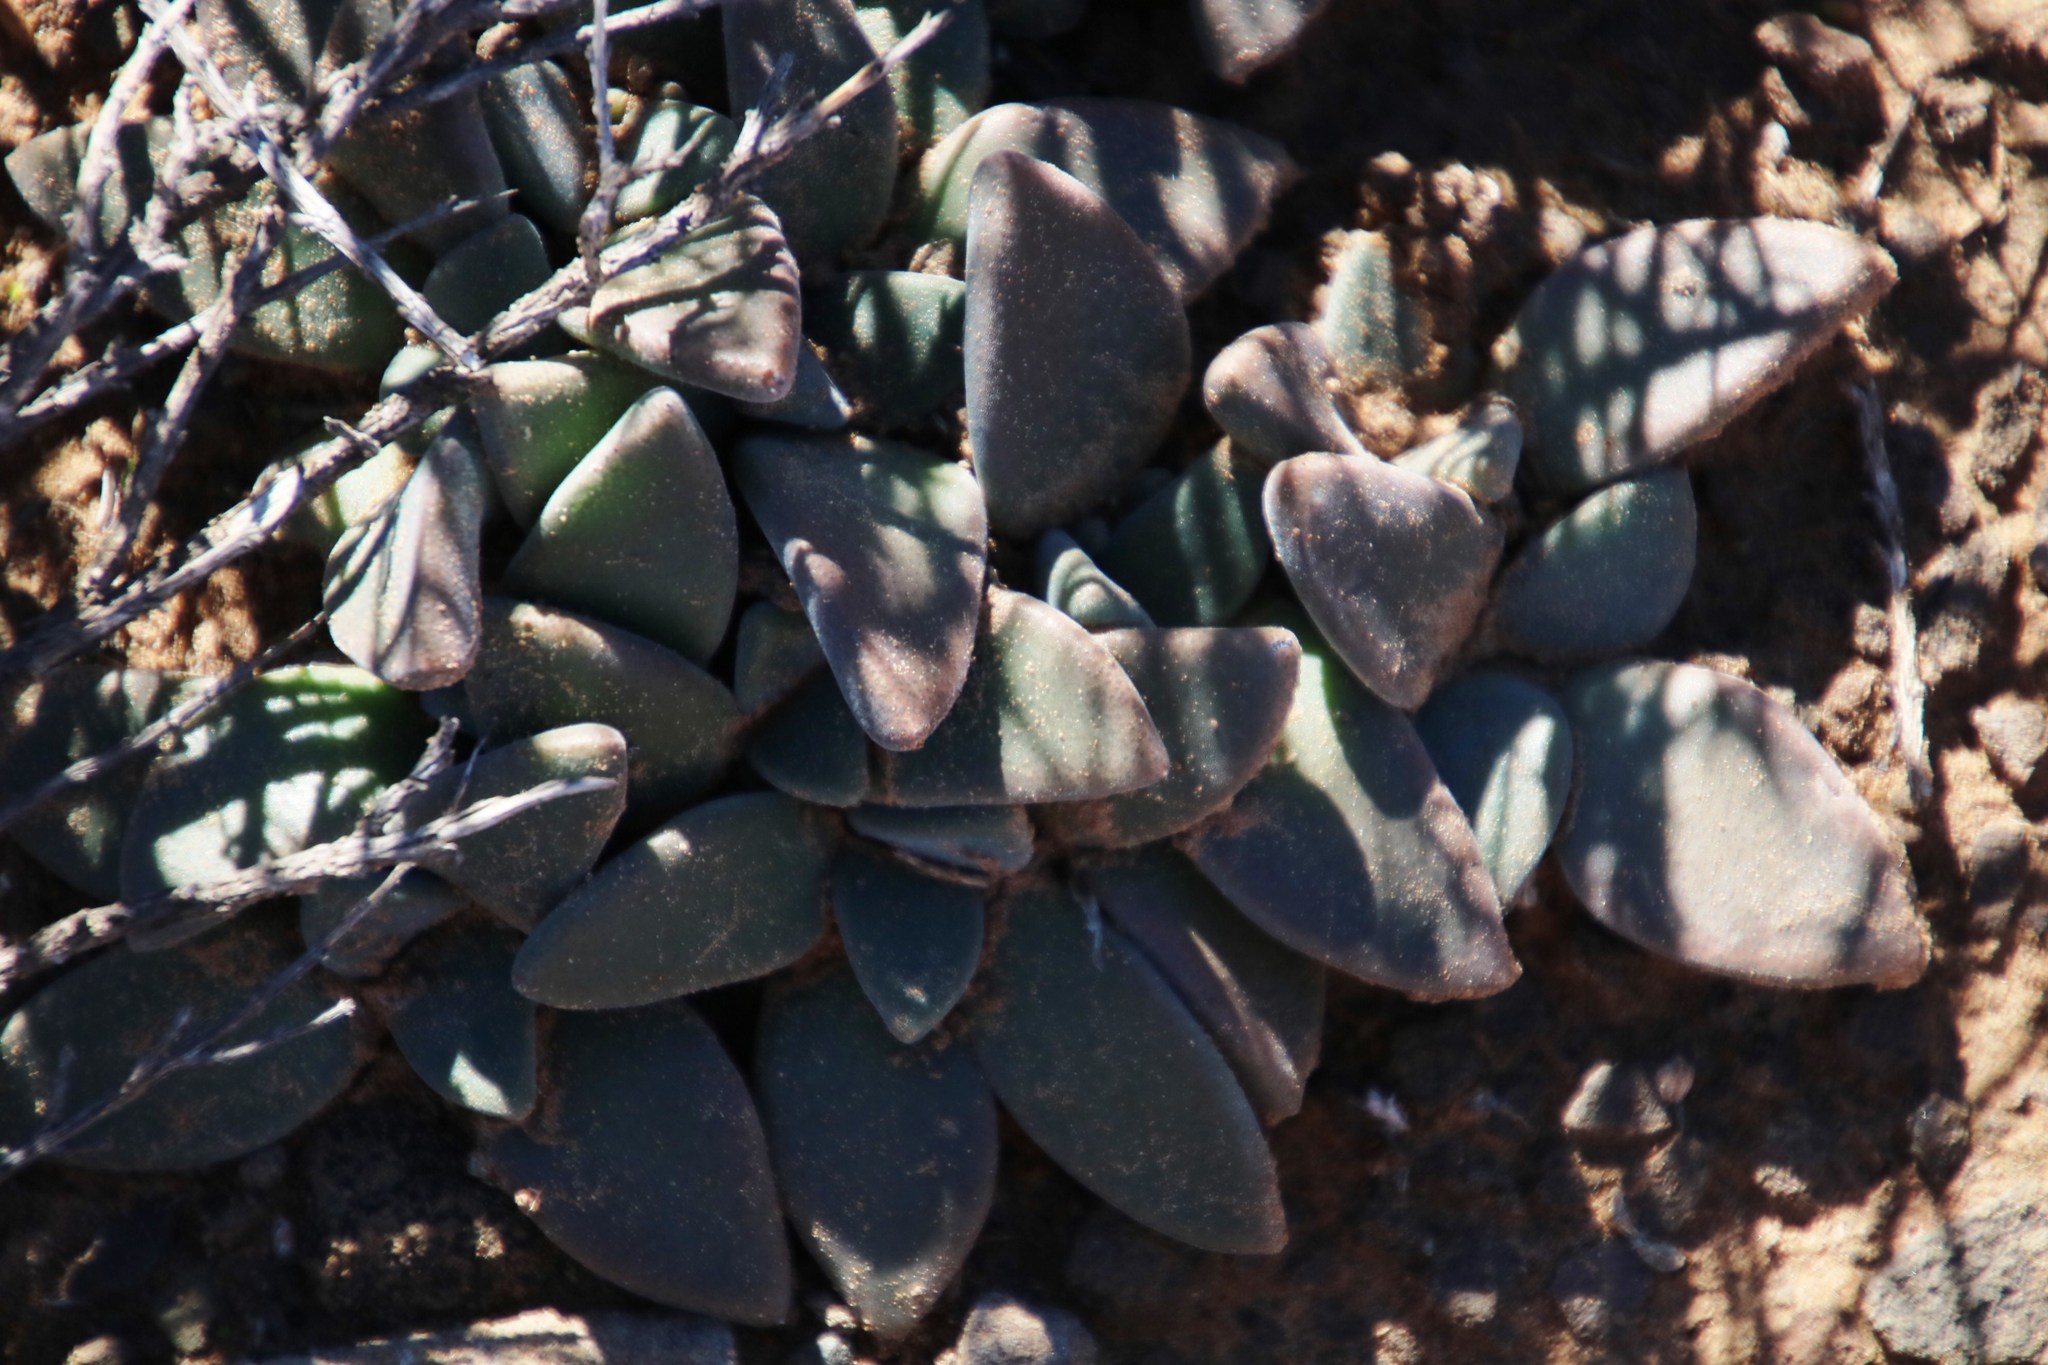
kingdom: Plantae
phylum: Tracheophyta
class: Magnoliopsida
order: Caryophyllales
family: Aizoaceae
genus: Deilanthe
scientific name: Deilanthe peersii
